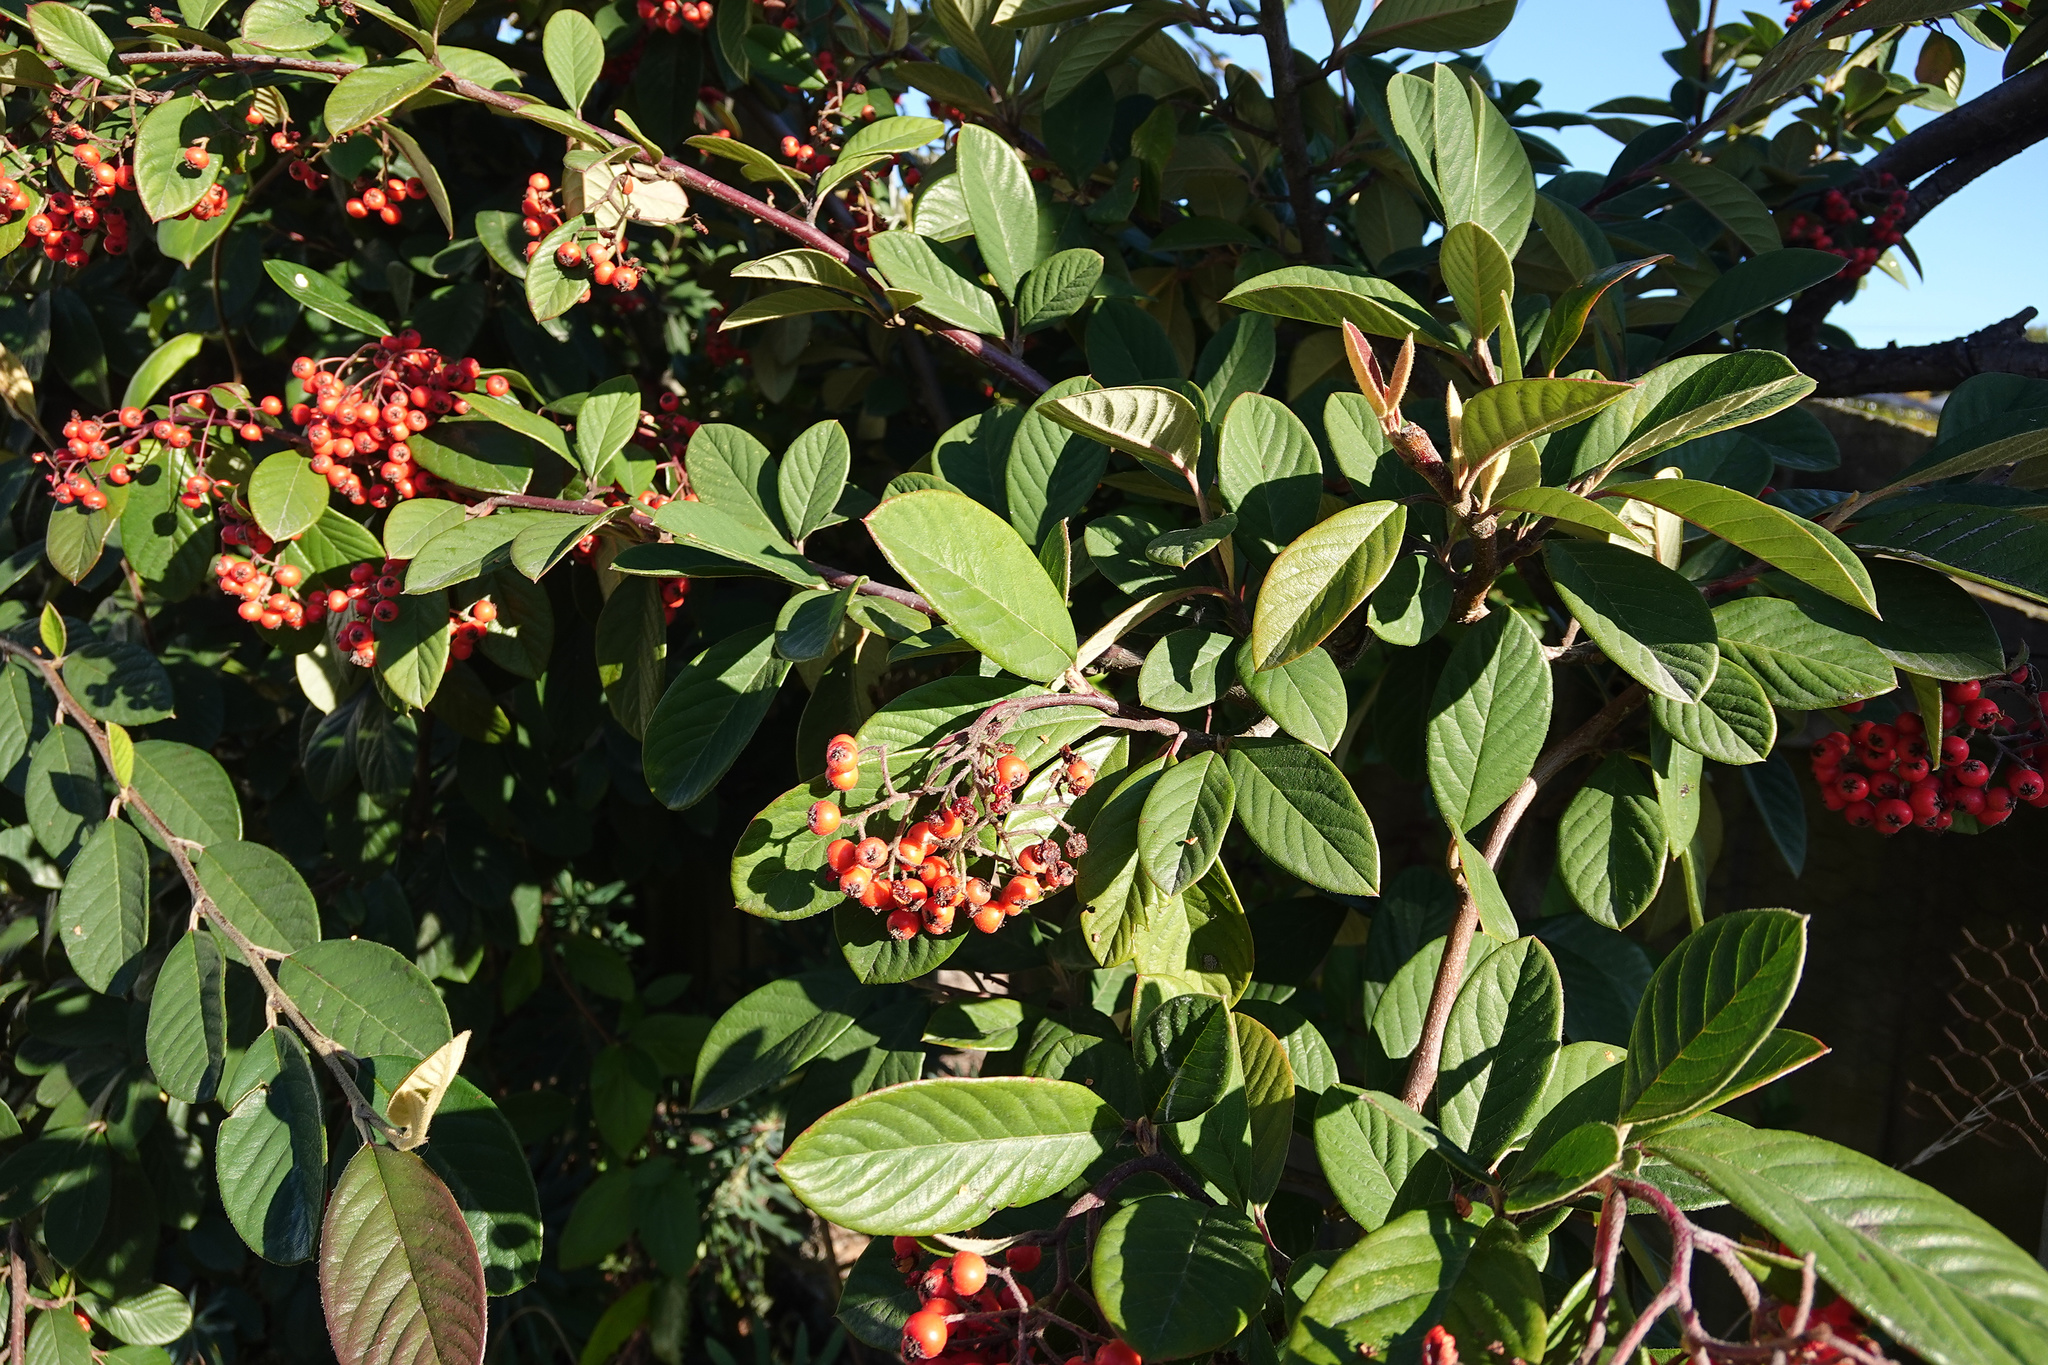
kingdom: Plantae
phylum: Tracheophyta
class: Magnoliopsida
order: Rosales
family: Rosaceae
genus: Cotoneaster
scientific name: Cotoneaster coriaceus
